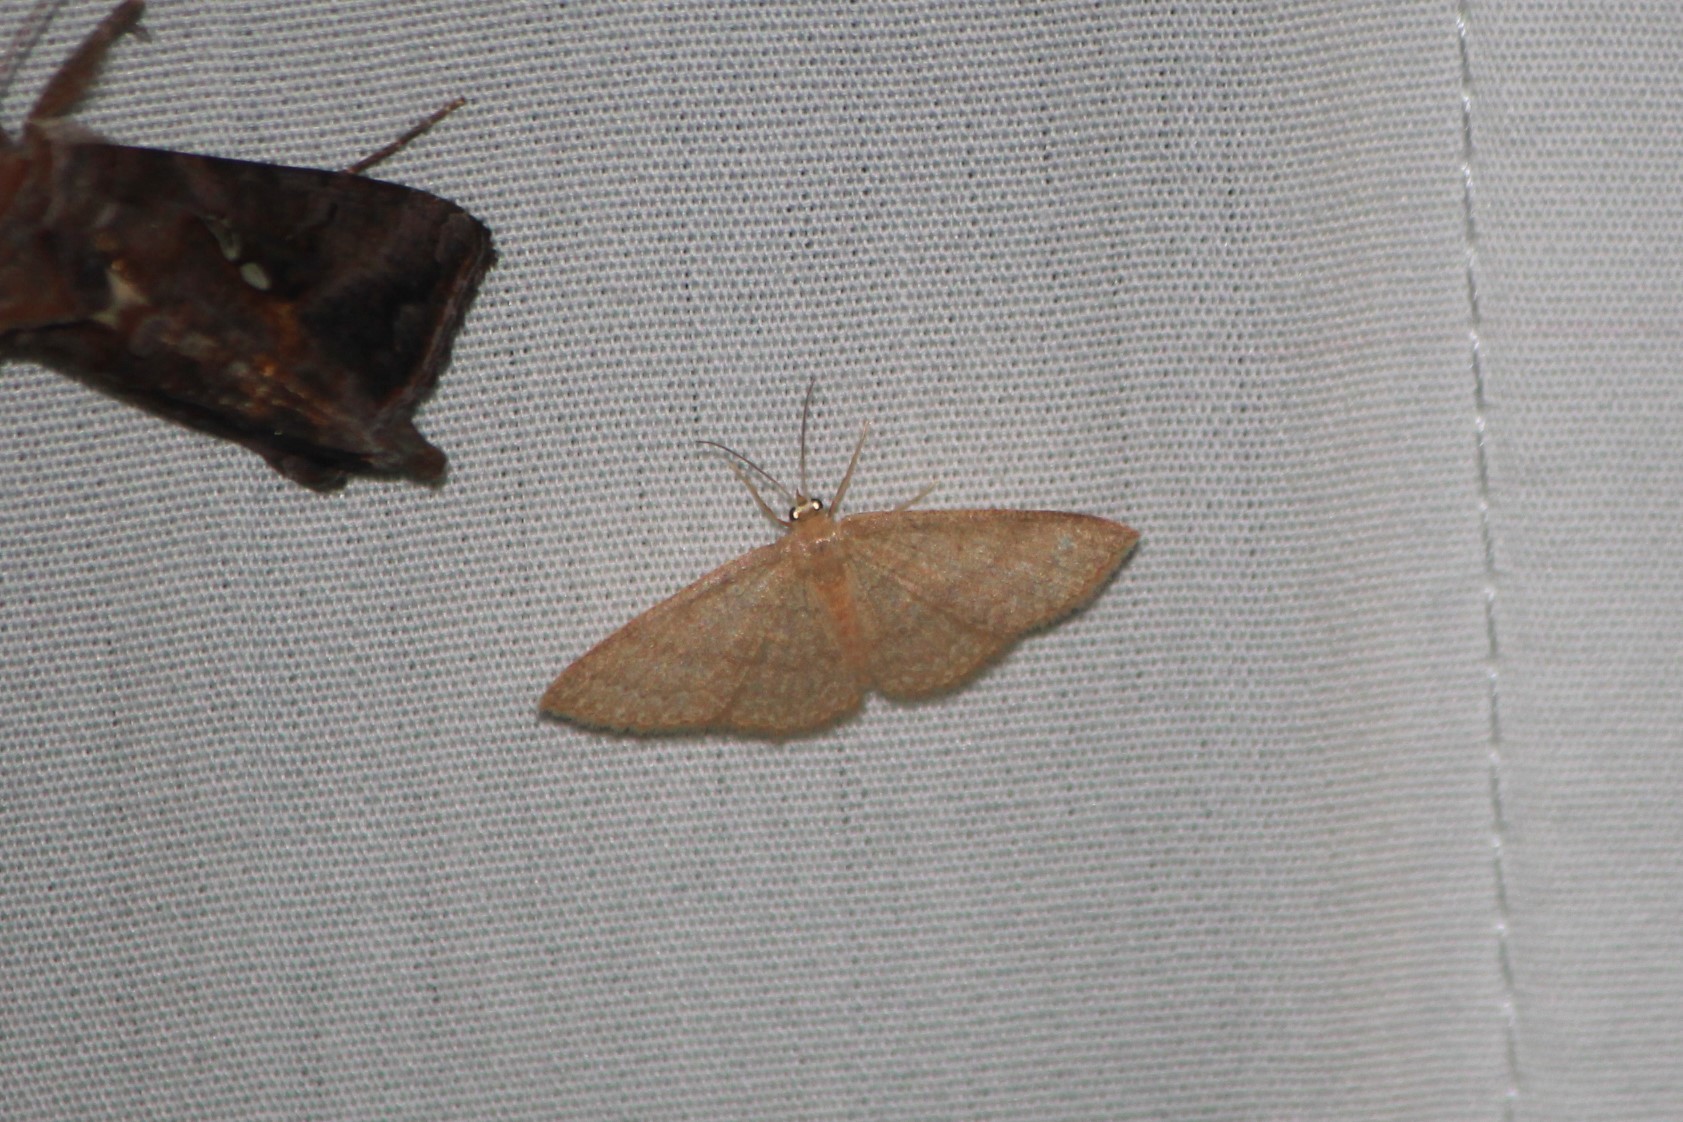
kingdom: Animalia
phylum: Arthropoda
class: Insecta
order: Lepidoptera
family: Geometridae
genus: Pleuroprucha
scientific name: Pleuroprucha insulsaria
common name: Common tan wave
